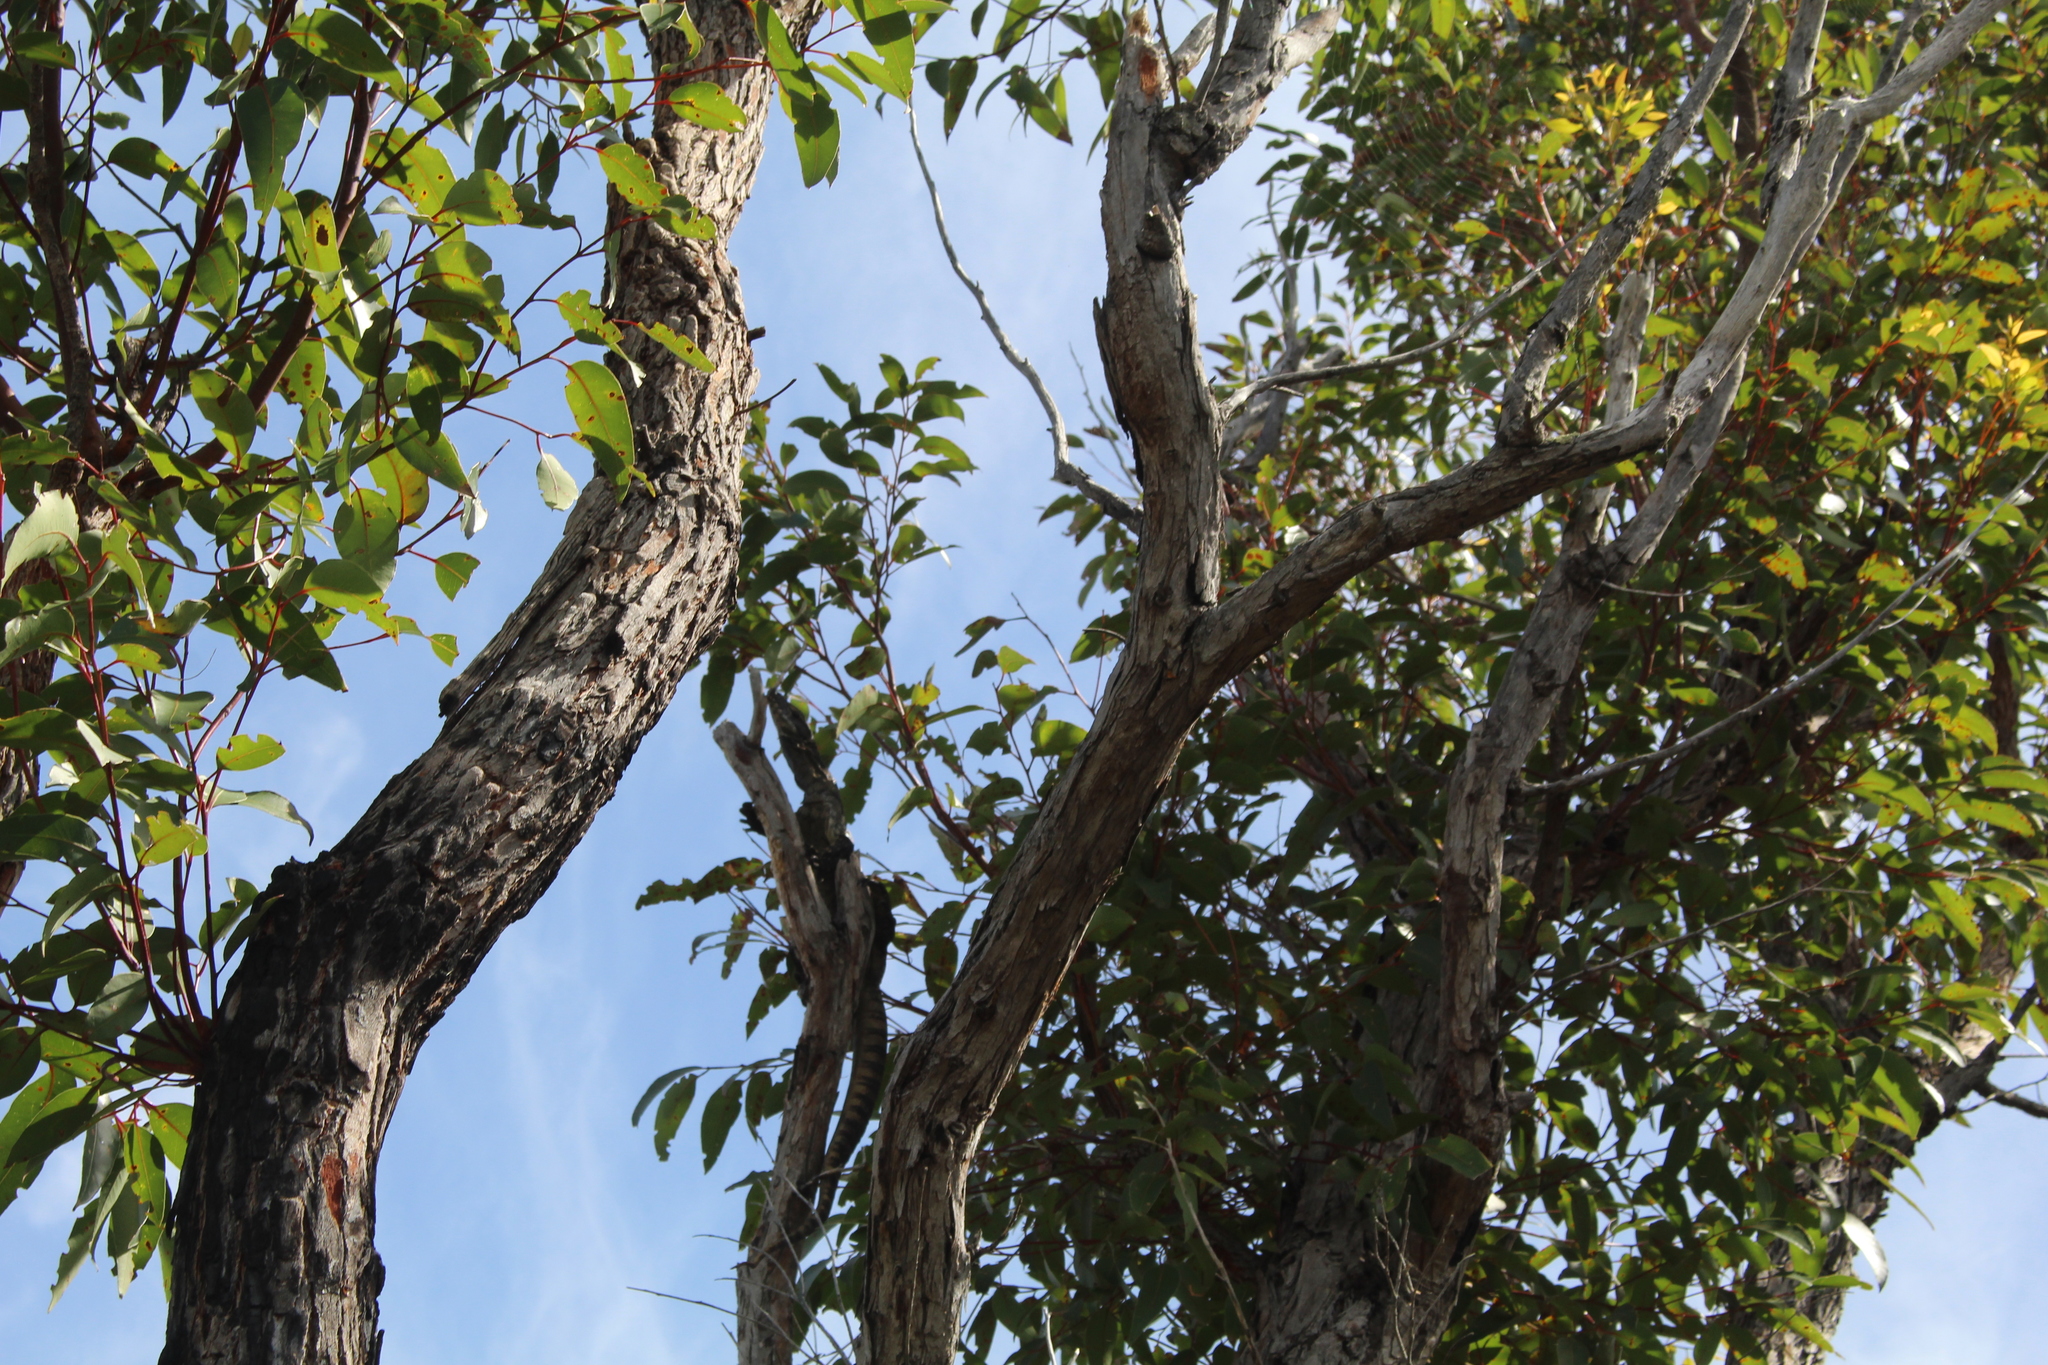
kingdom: Animalia
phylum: Chordata
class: Squamata
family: Varanidae
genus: Varanus
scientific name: Varanus rosenbergi
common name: Heath monitor
